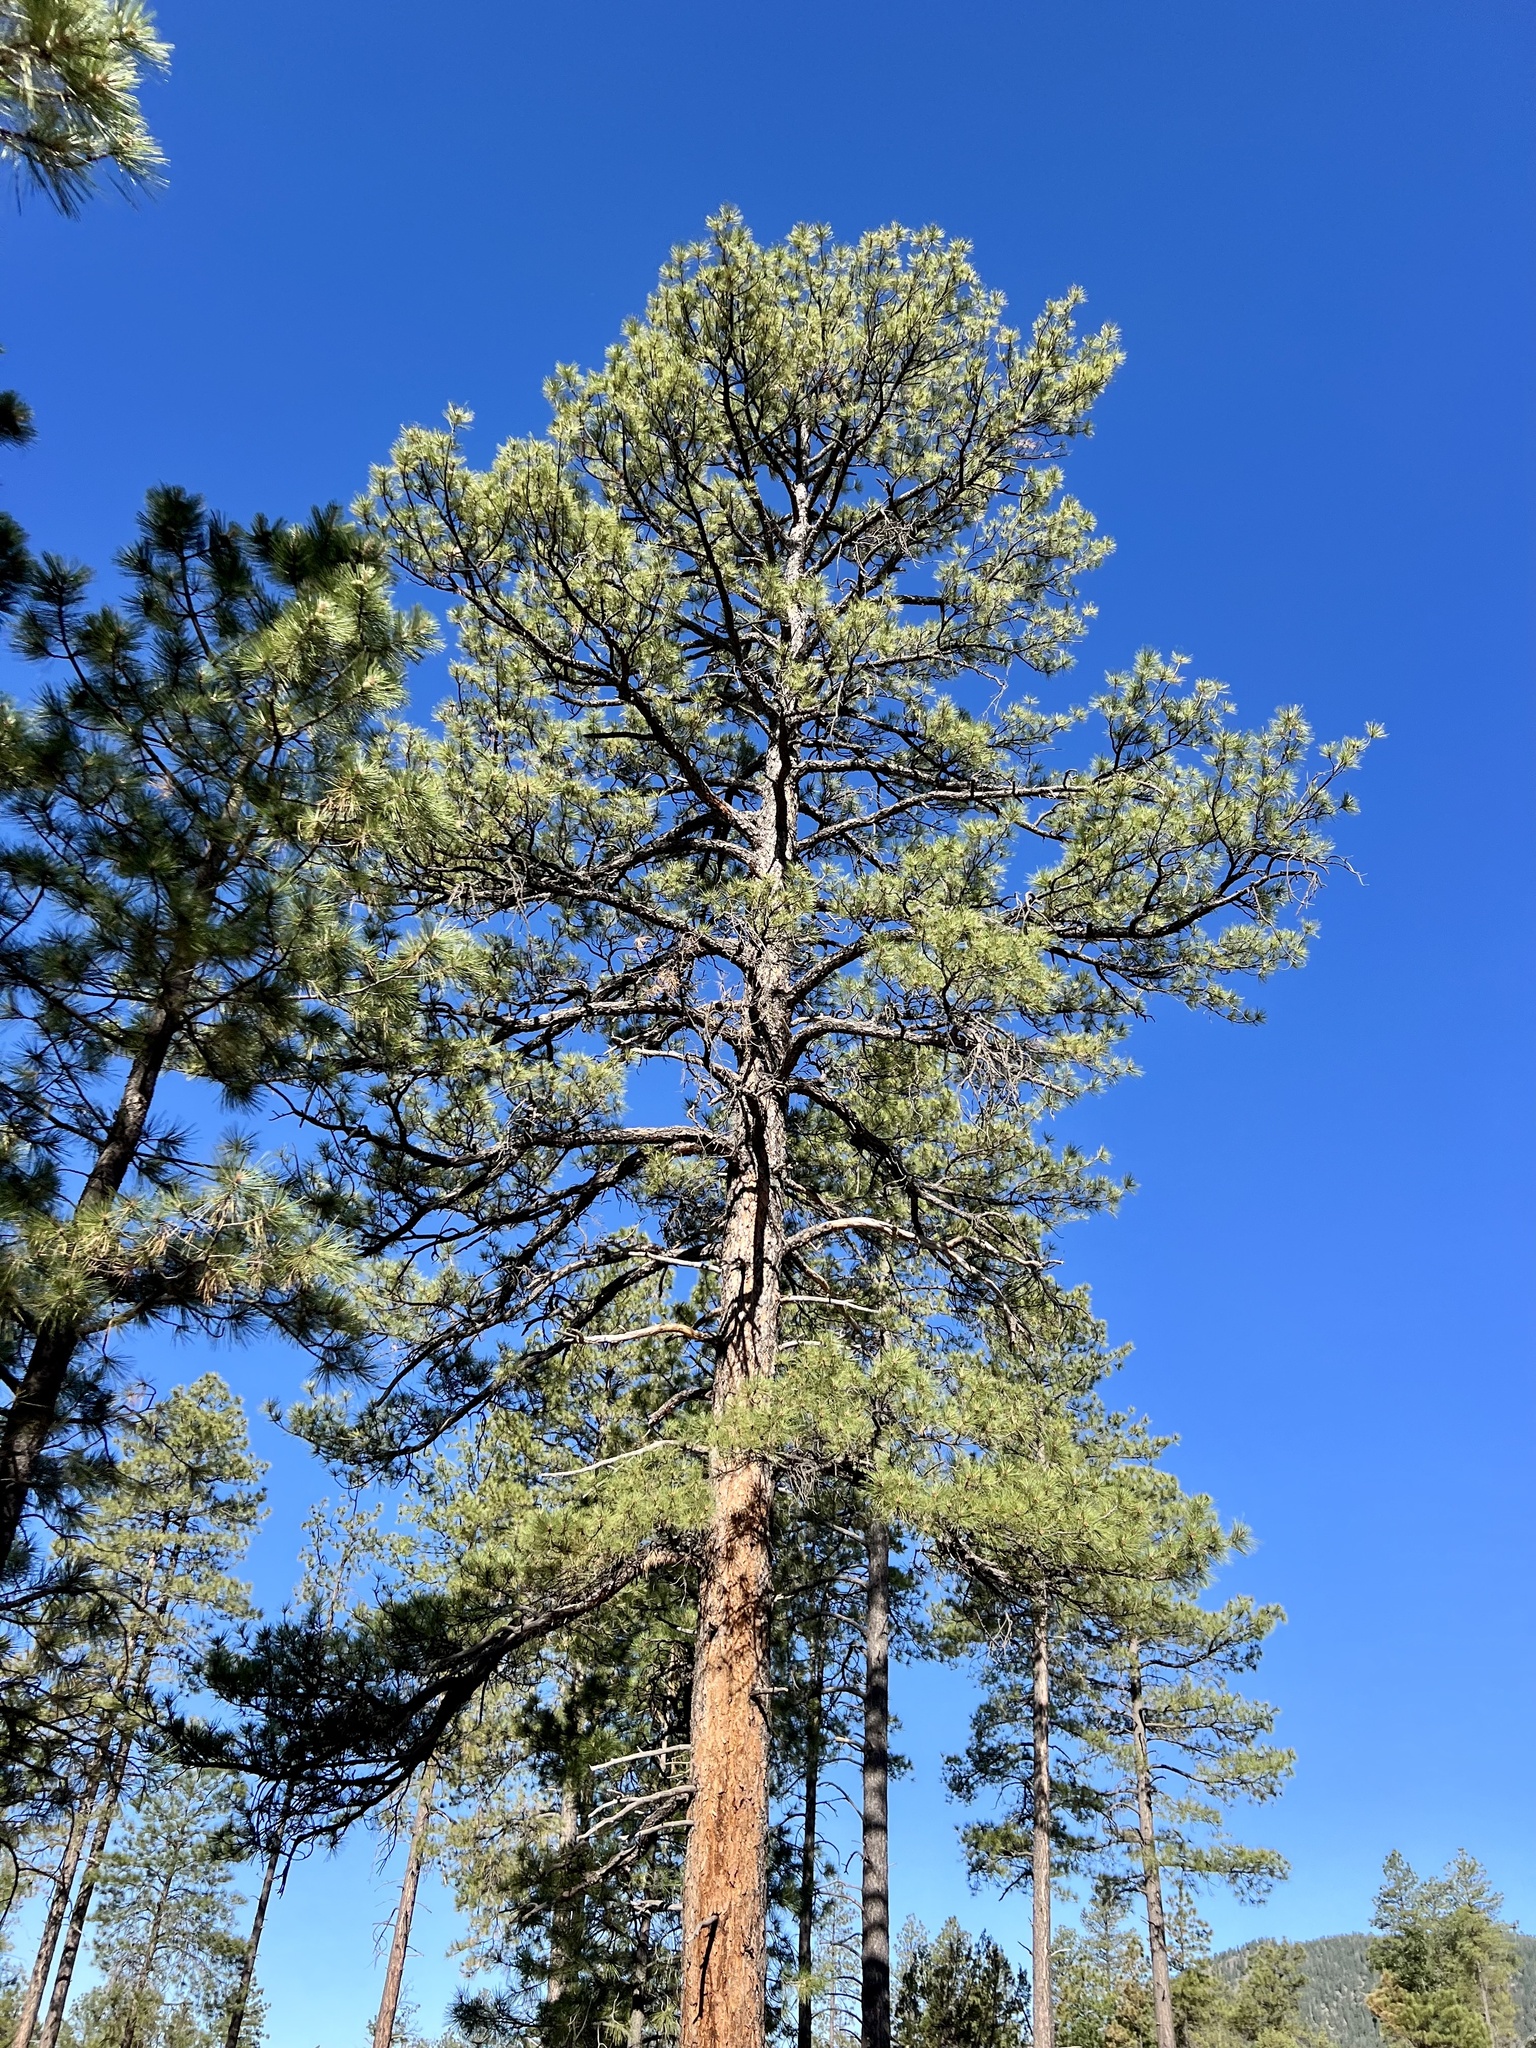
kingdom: Plantae
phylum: Tracheophyta
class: Pinopsida
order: Pinales
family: Pinaceae
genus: Pinus
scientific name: Pinus ponderosa
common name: Western yellow-pine
